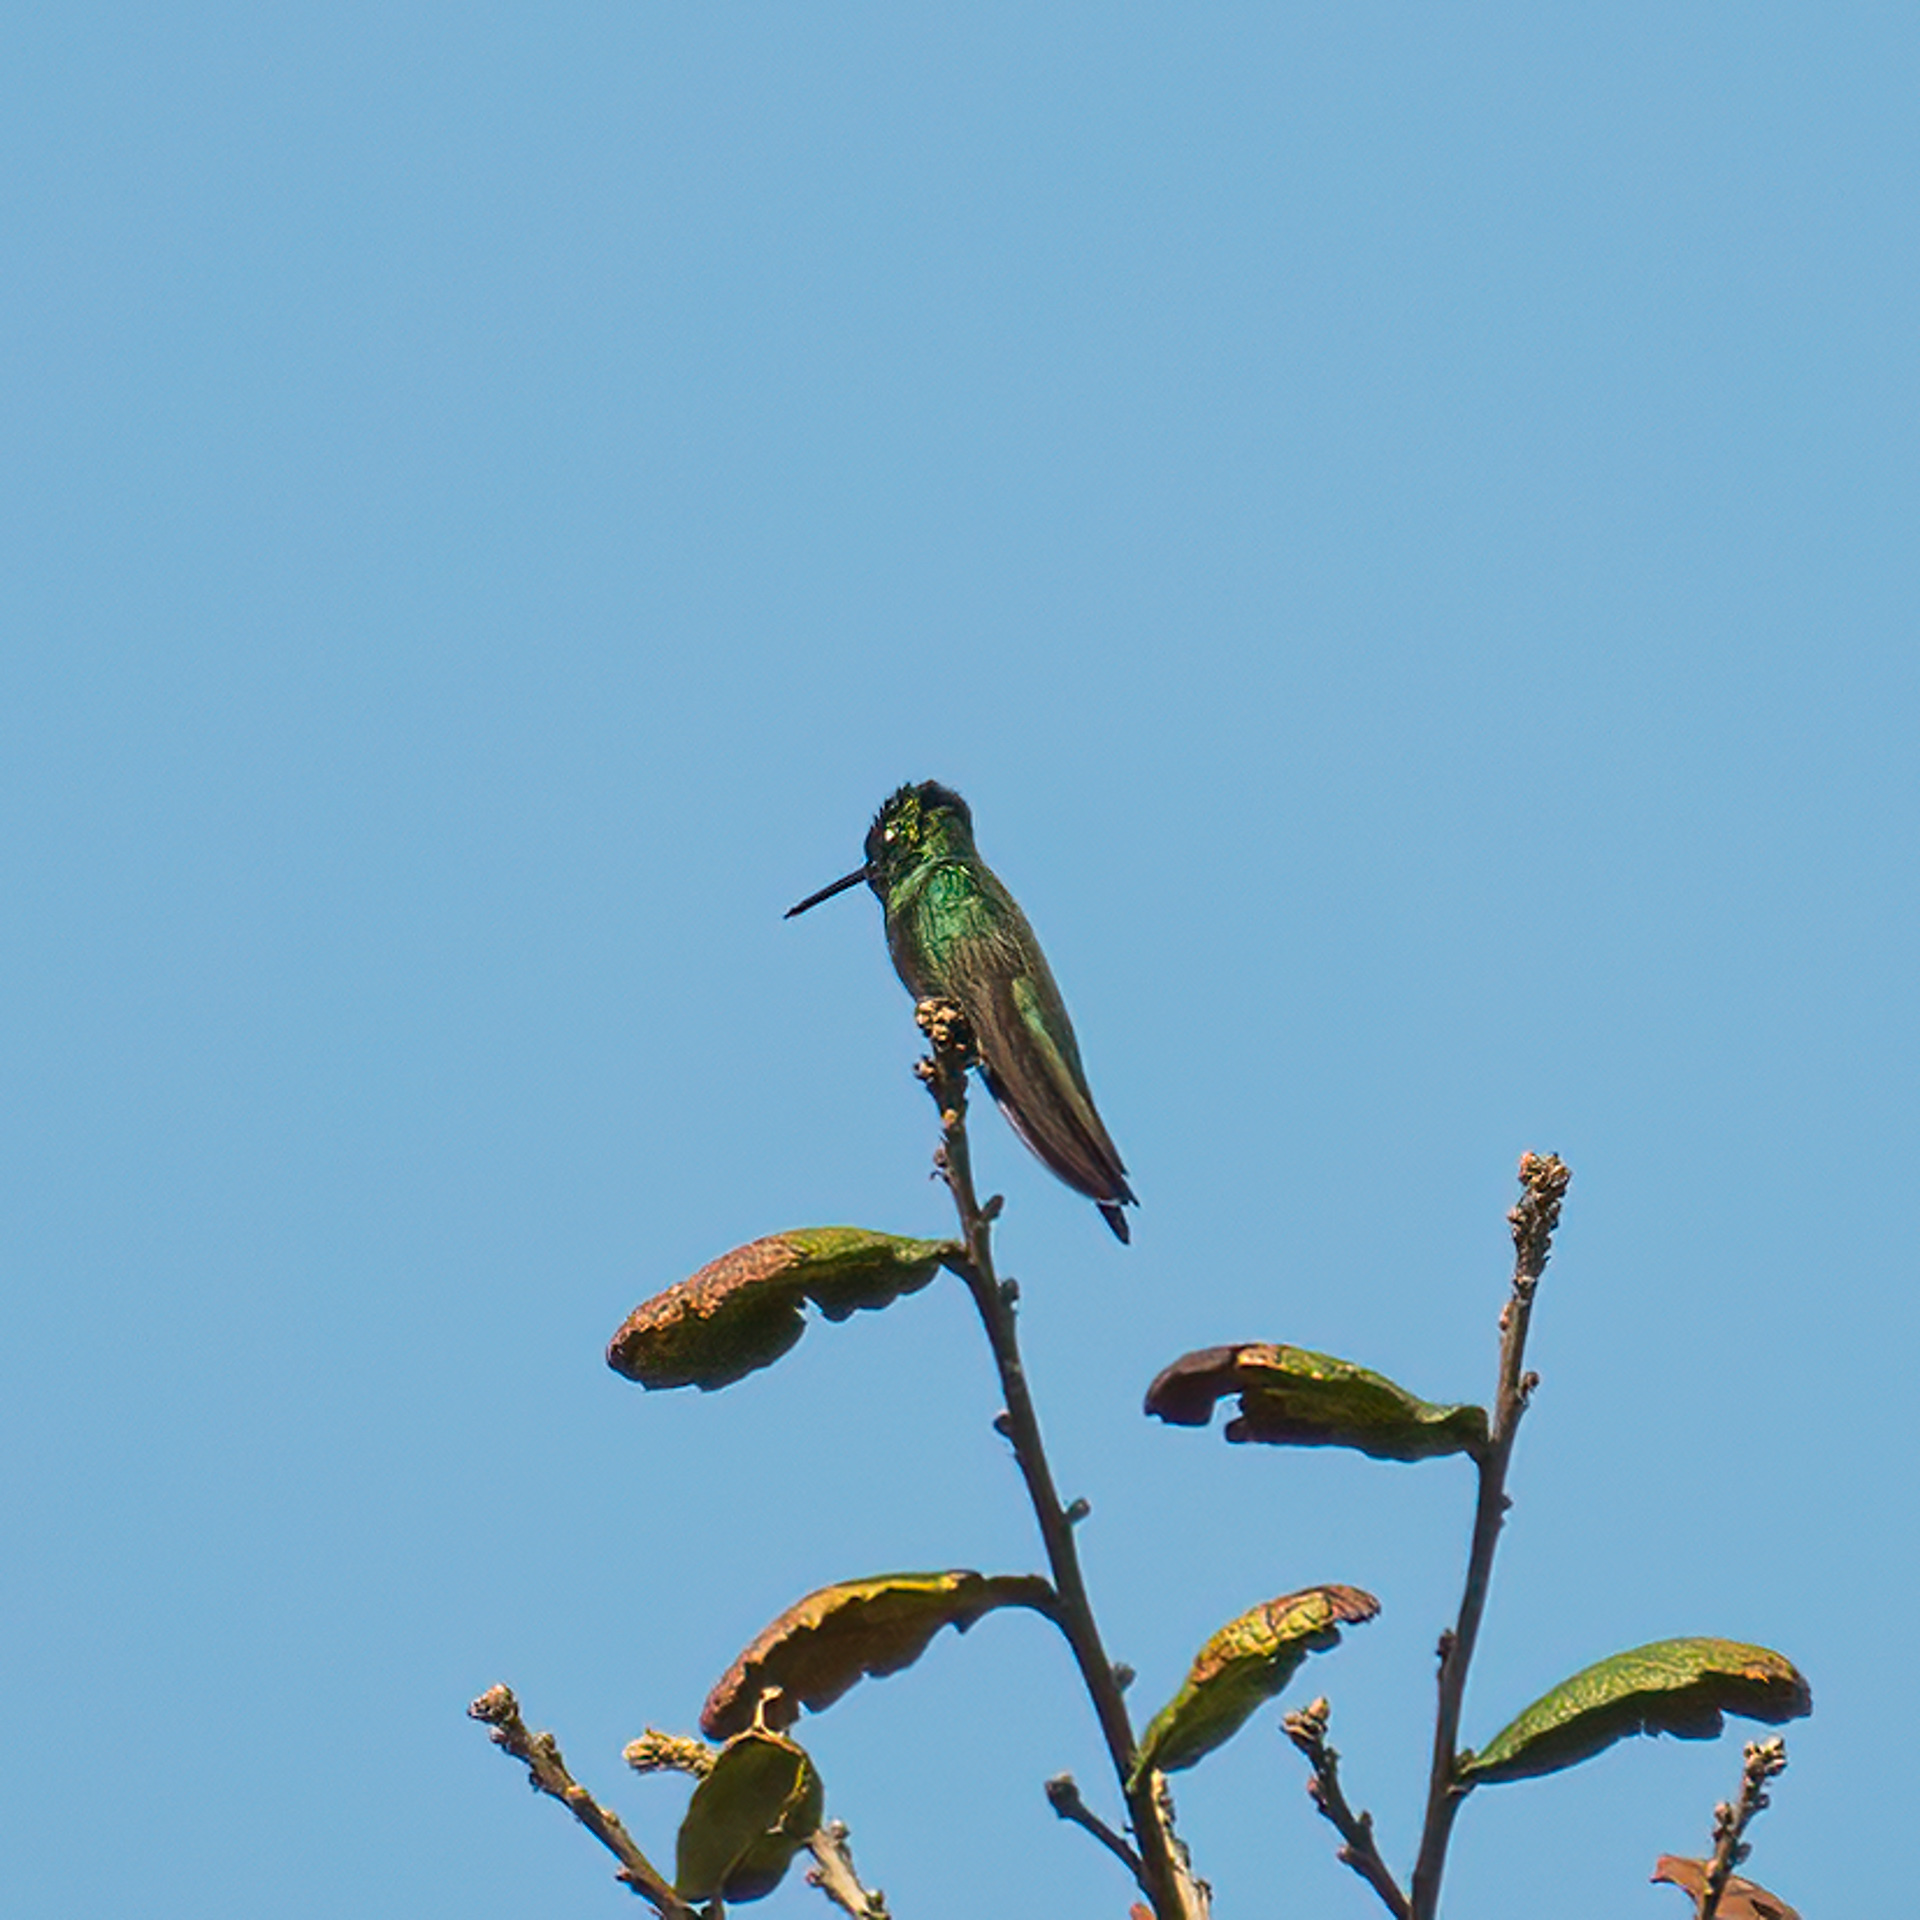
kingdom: Animalia
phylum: Chordata
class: Aves
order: Apodiformes
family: Trochilidae
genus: Eugenes
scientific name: Eugenes fulgens
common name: Magnificent hummingbird
